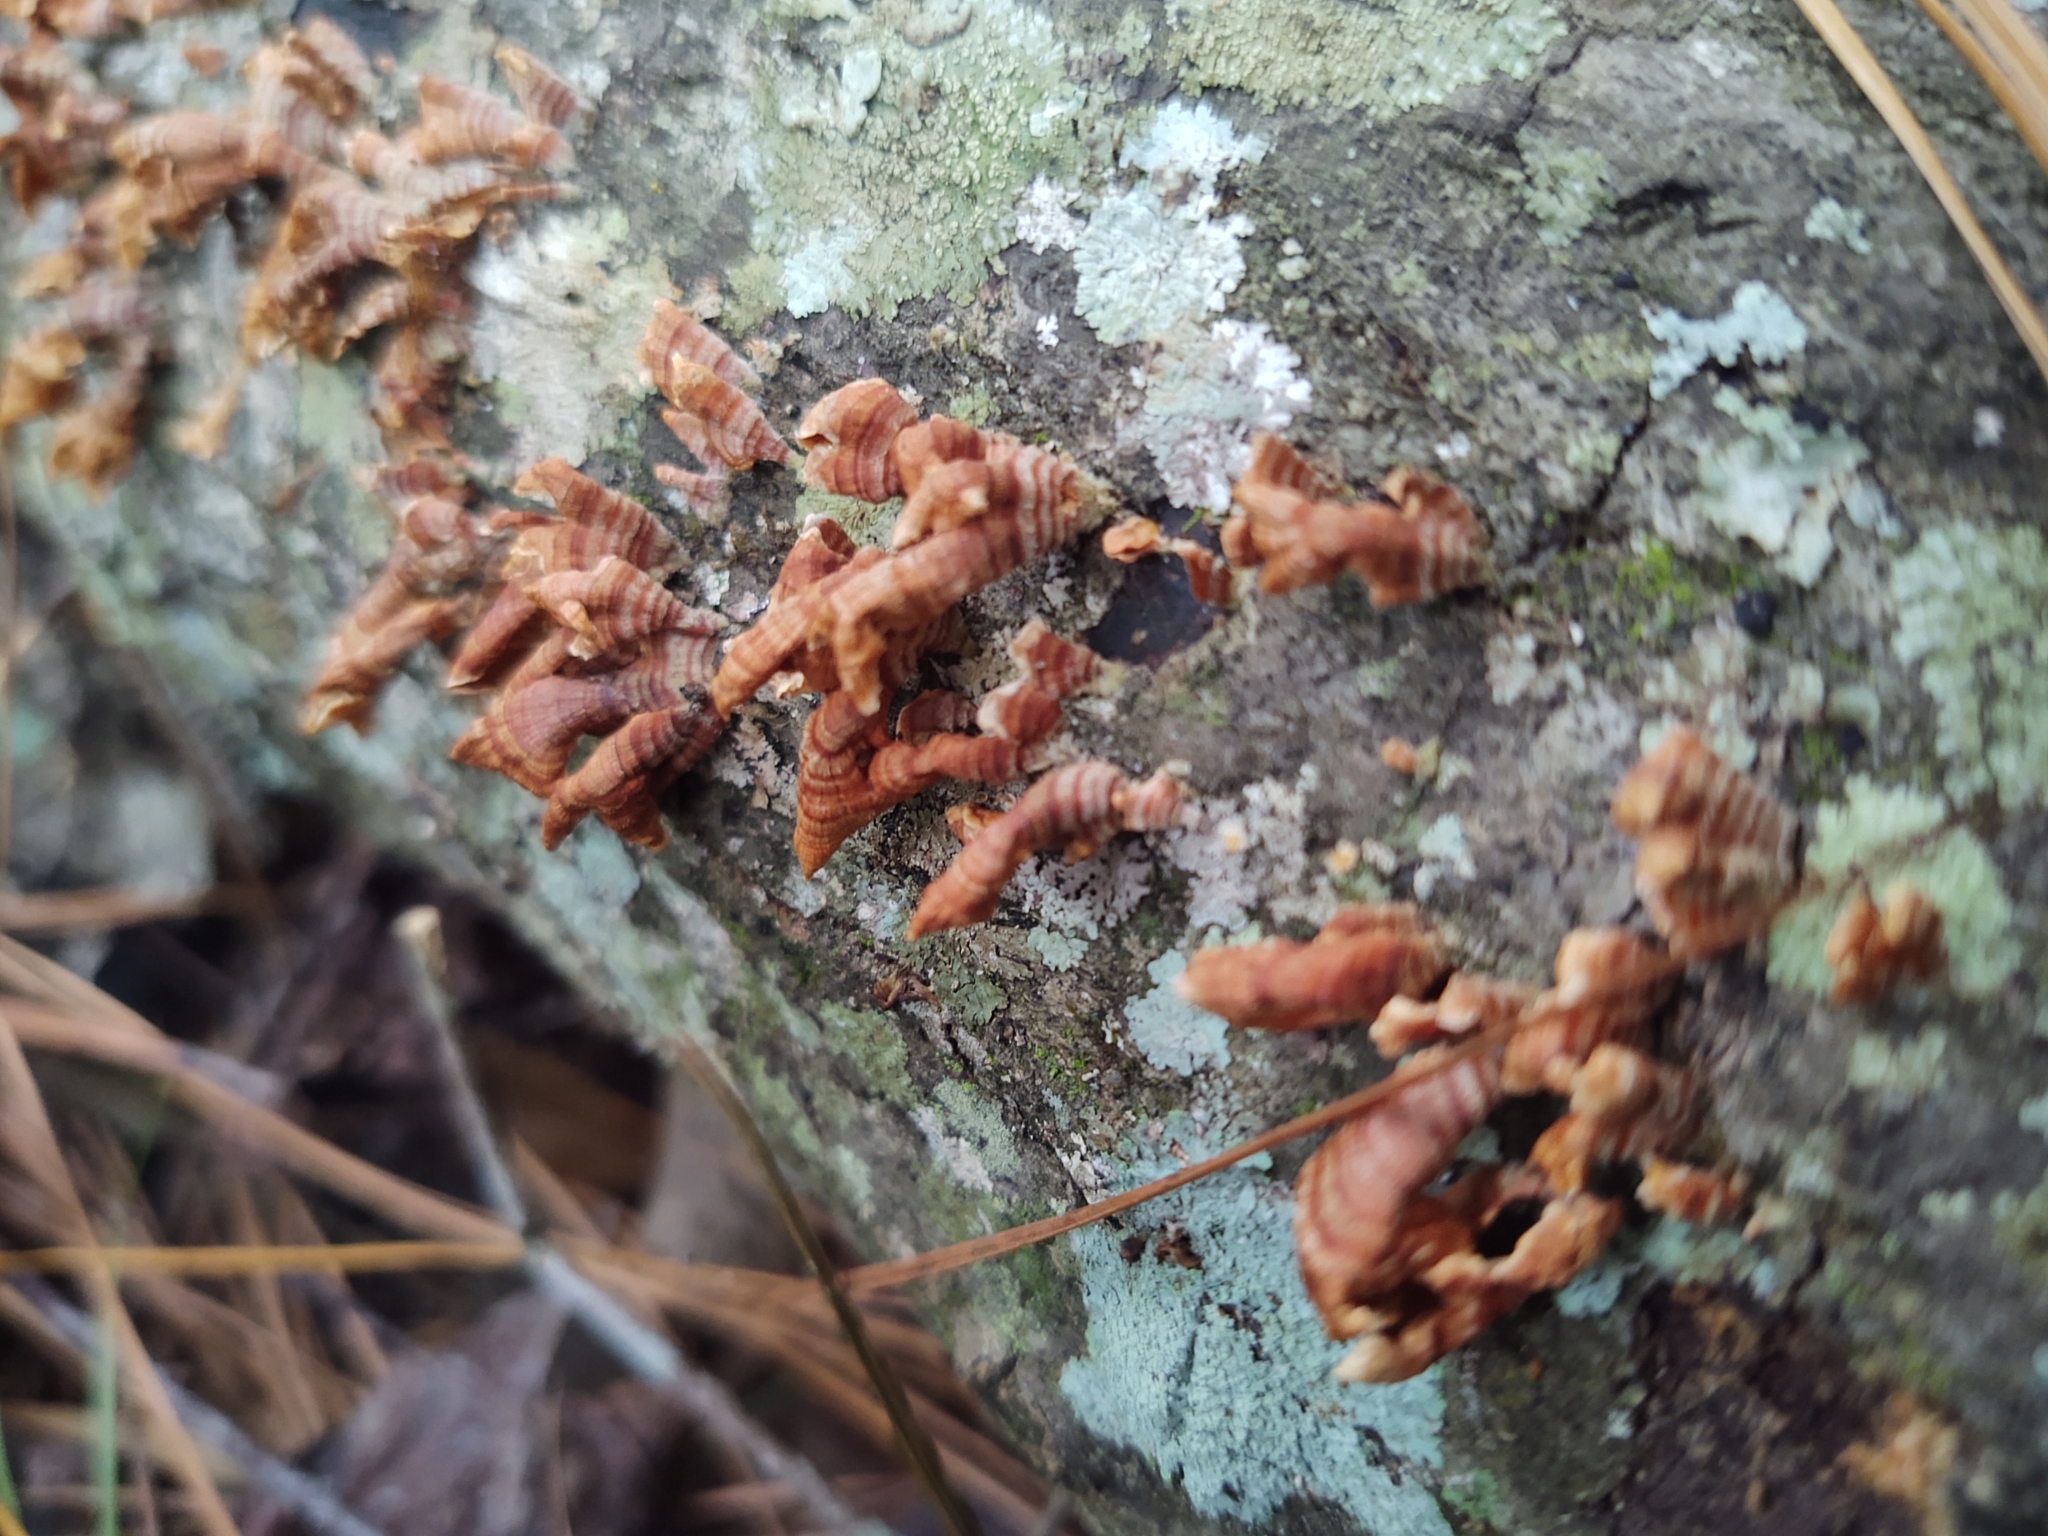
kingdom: Fungi
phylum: Basidiomycota
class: Agaricomycetes
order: Russulales
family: Stereaceae
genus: Stereum
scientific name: Stereum complicatum
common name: Crowded parchment
